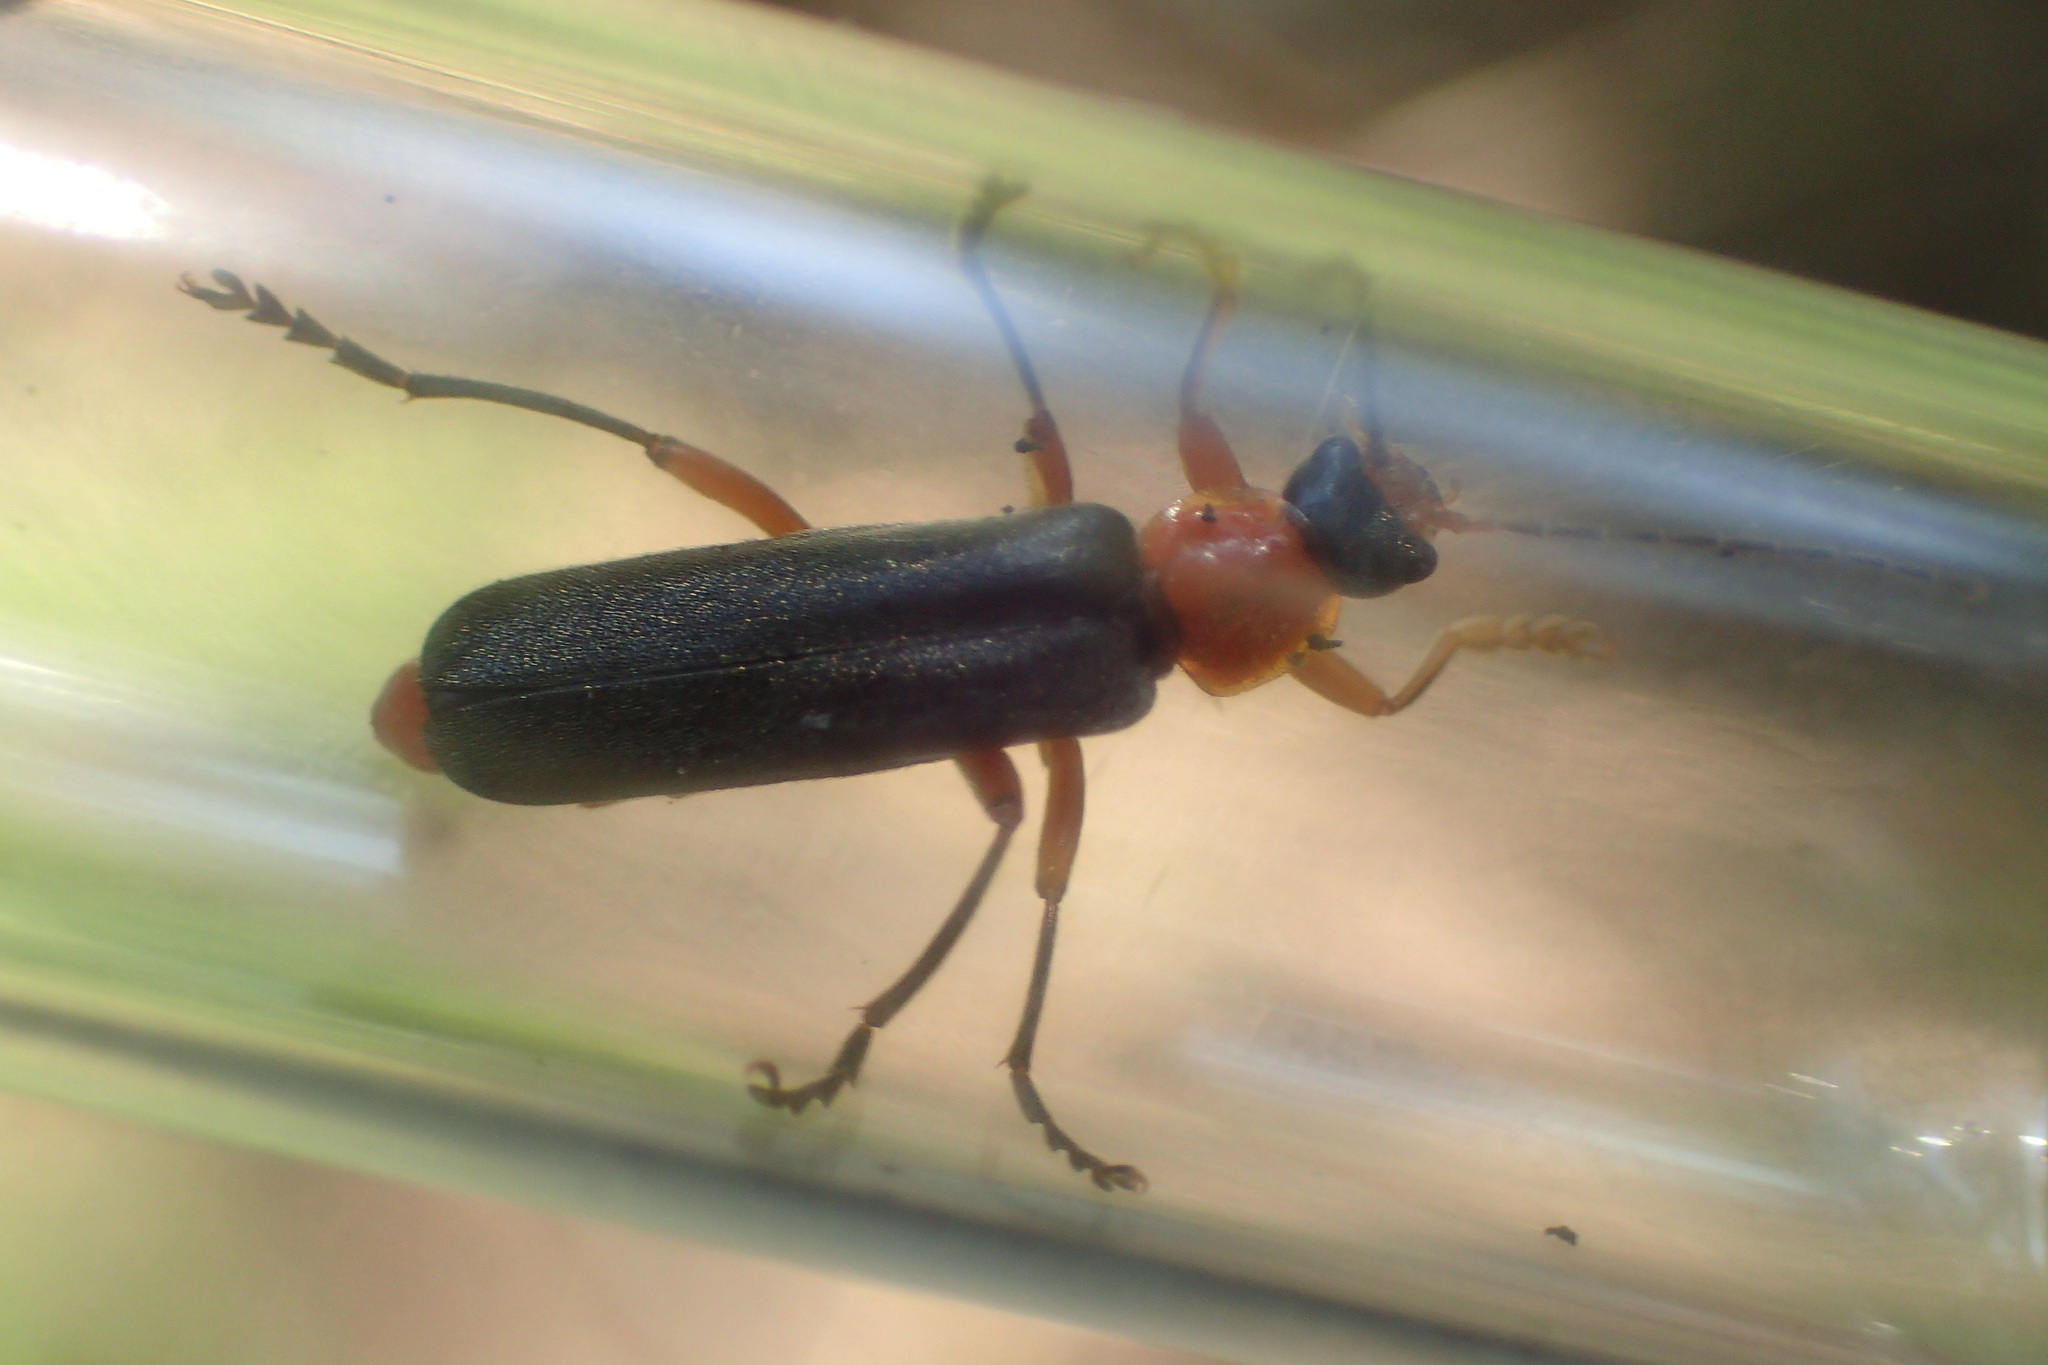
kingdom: Animalia
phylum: Arthropoda
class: Insecta
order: Coleoptera
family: Cantharidae
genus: Cantharis
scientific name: Cantharis pellucida
